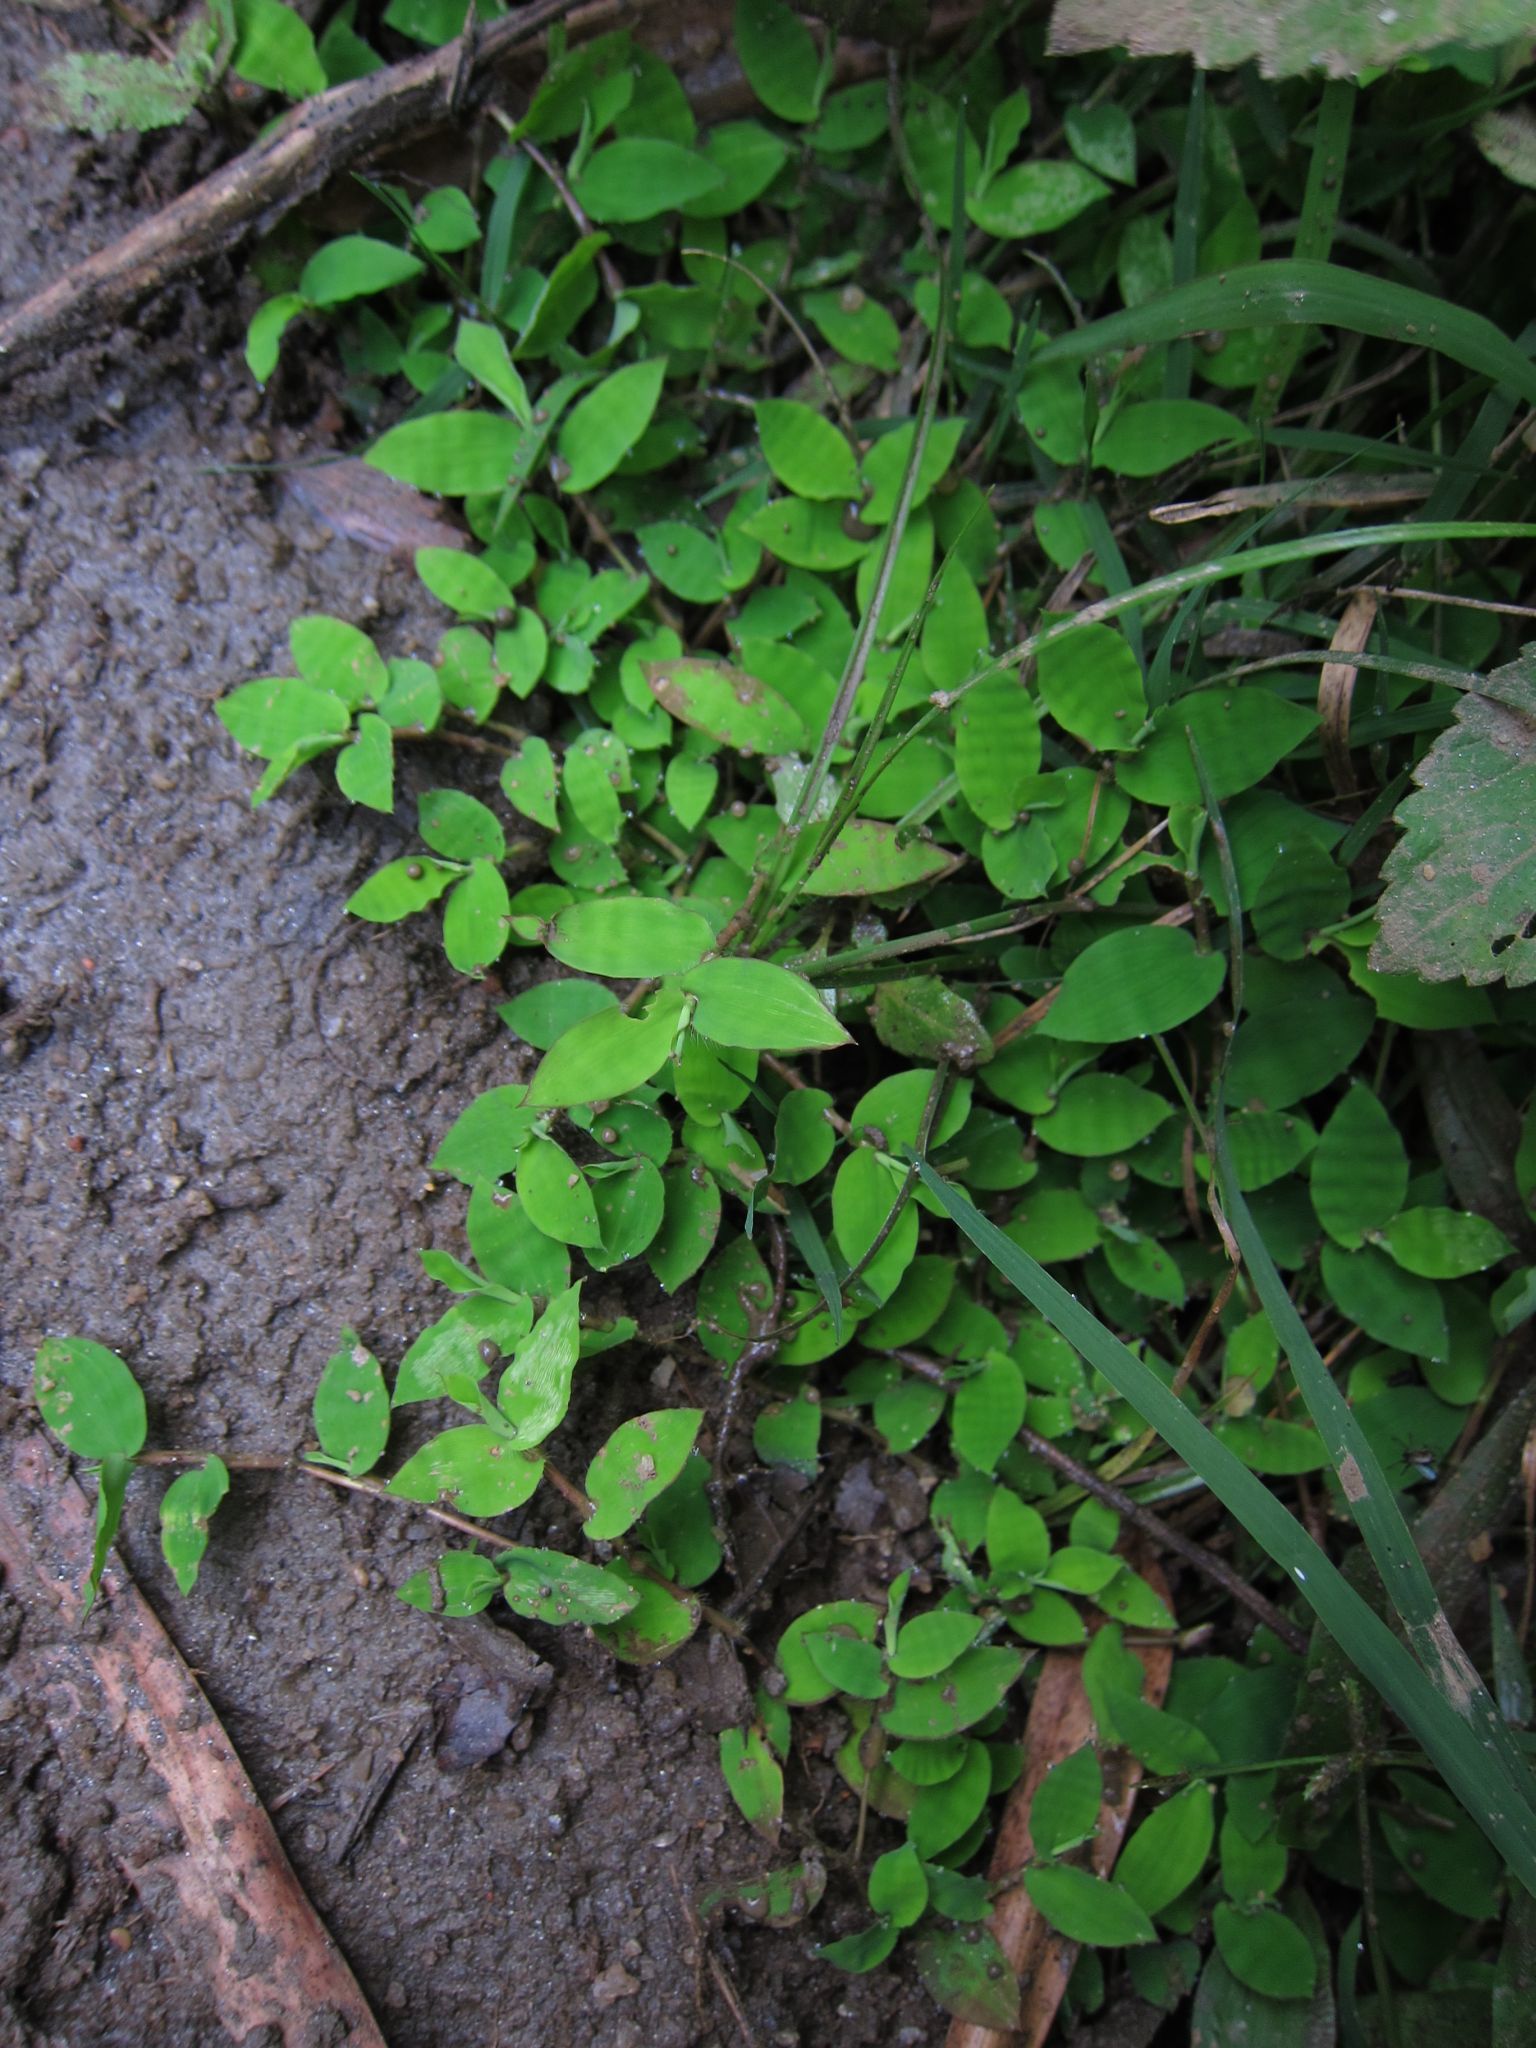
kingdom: Plantae
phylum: Tracheophyta
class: Liliopsida
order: Poales
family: Poaceae
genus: Cyrtococcum
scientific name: Cyrtococcum deltoideum
